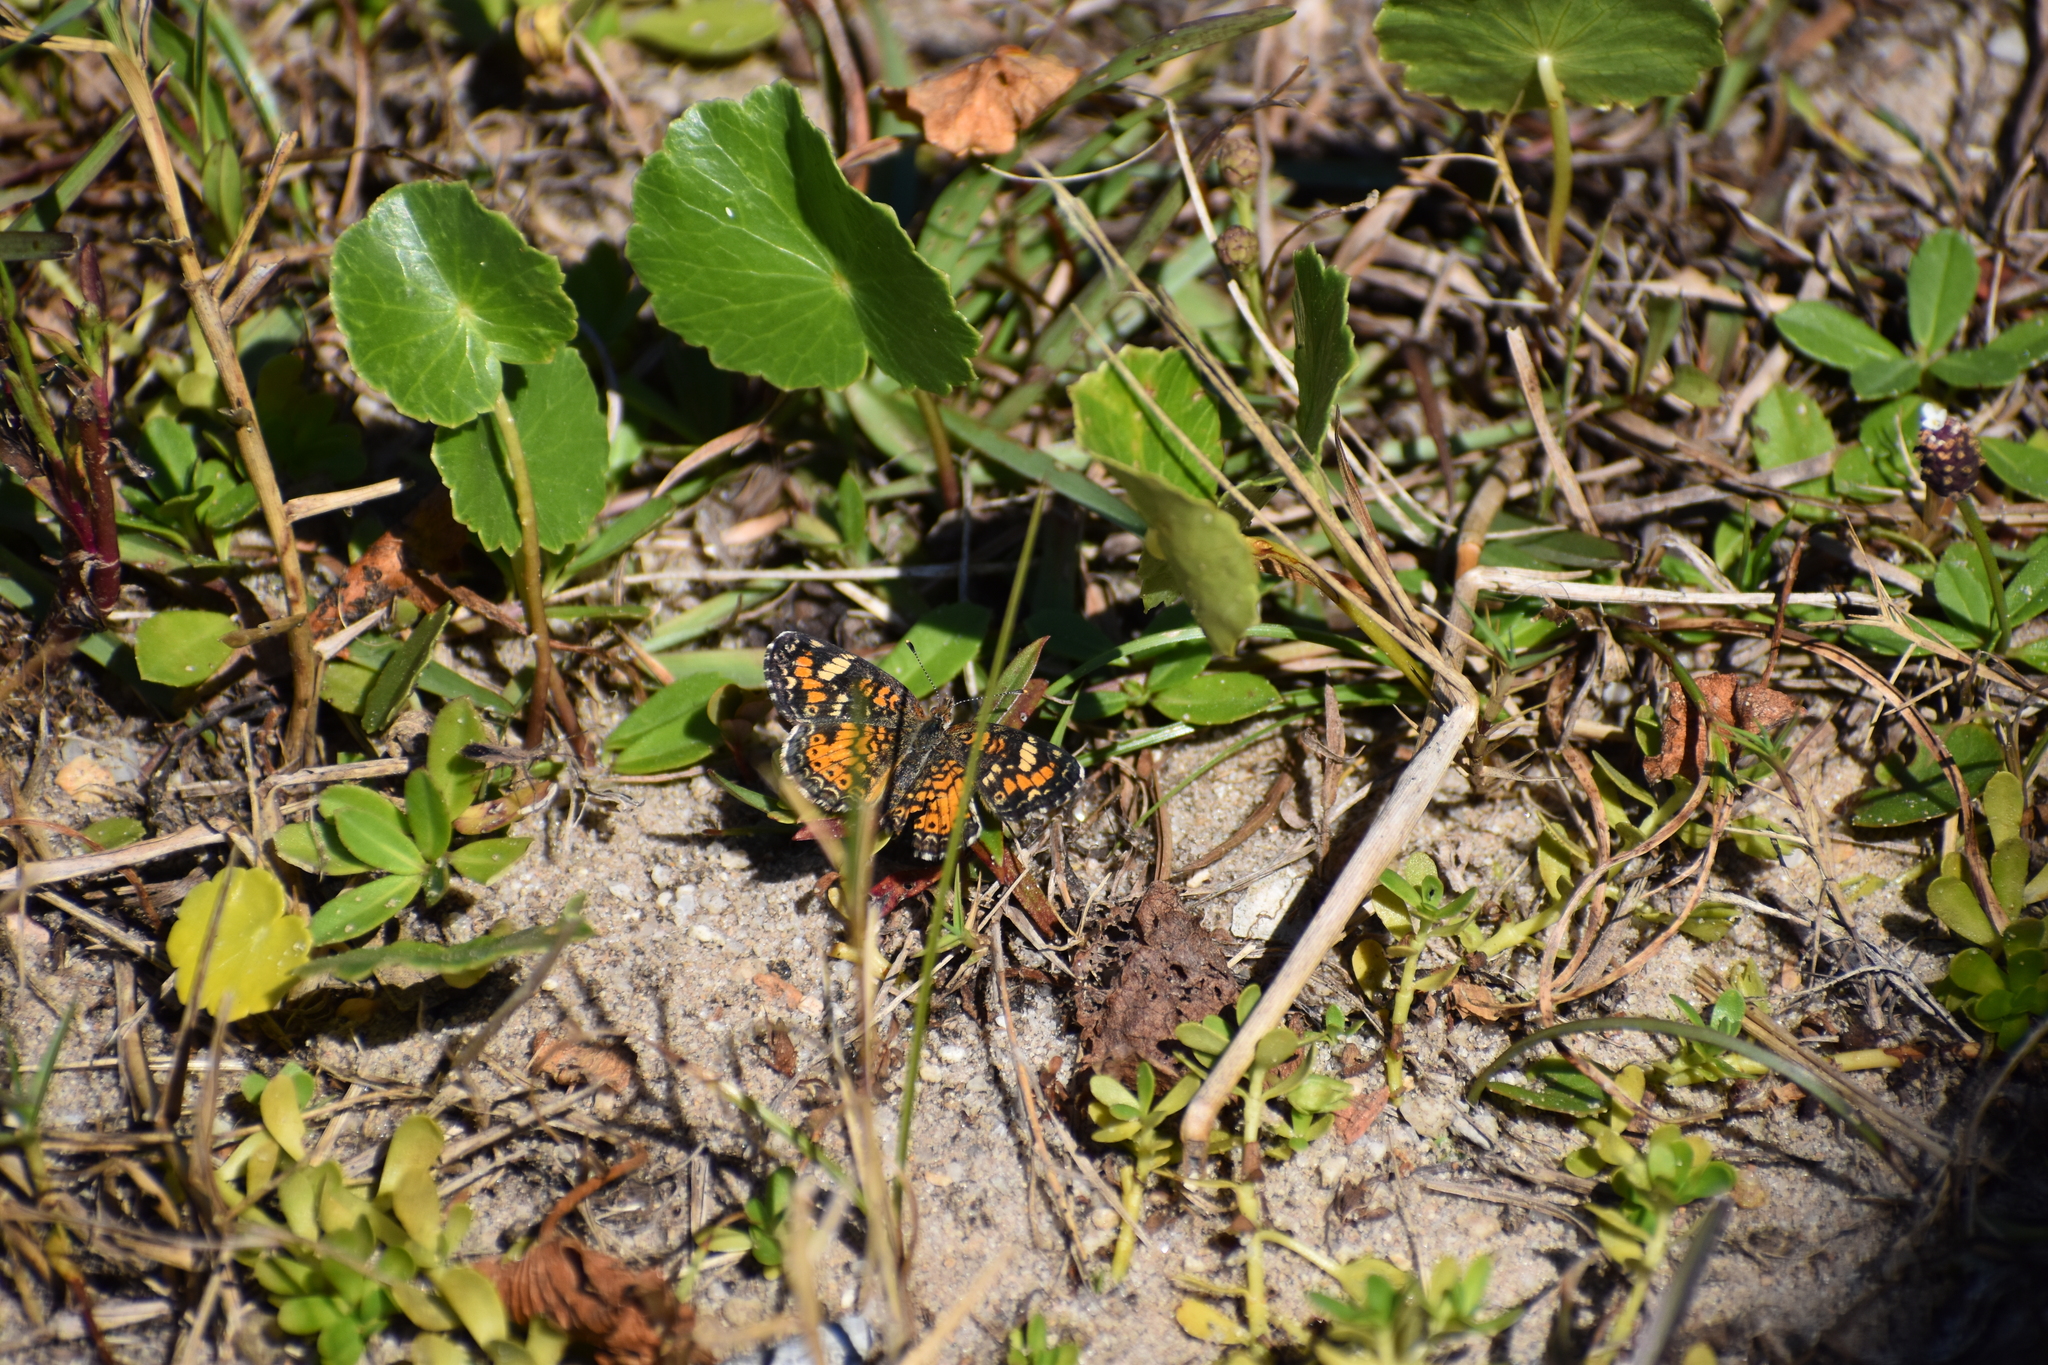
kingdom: Animalia
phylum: Arthropoda
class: Insecta
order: Lepidoptera
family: Nymphalidae
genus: Phyciodes
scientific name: Phyciodes phaon
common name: Phaon crescent
